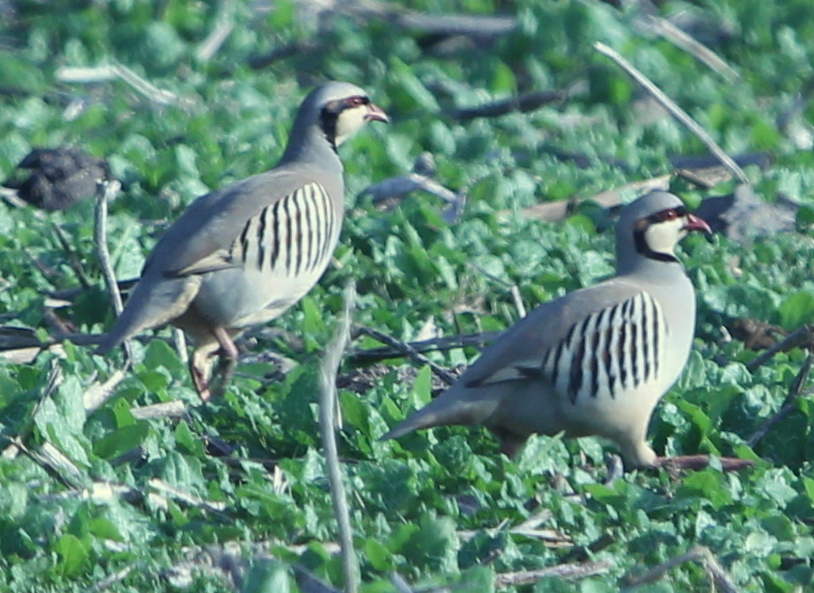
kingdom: Animalia
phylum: Chordata
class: Aves
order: Galliformes
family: Phasianidae
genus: Alectoris
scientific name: Alectoris chukar
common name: Chukar
